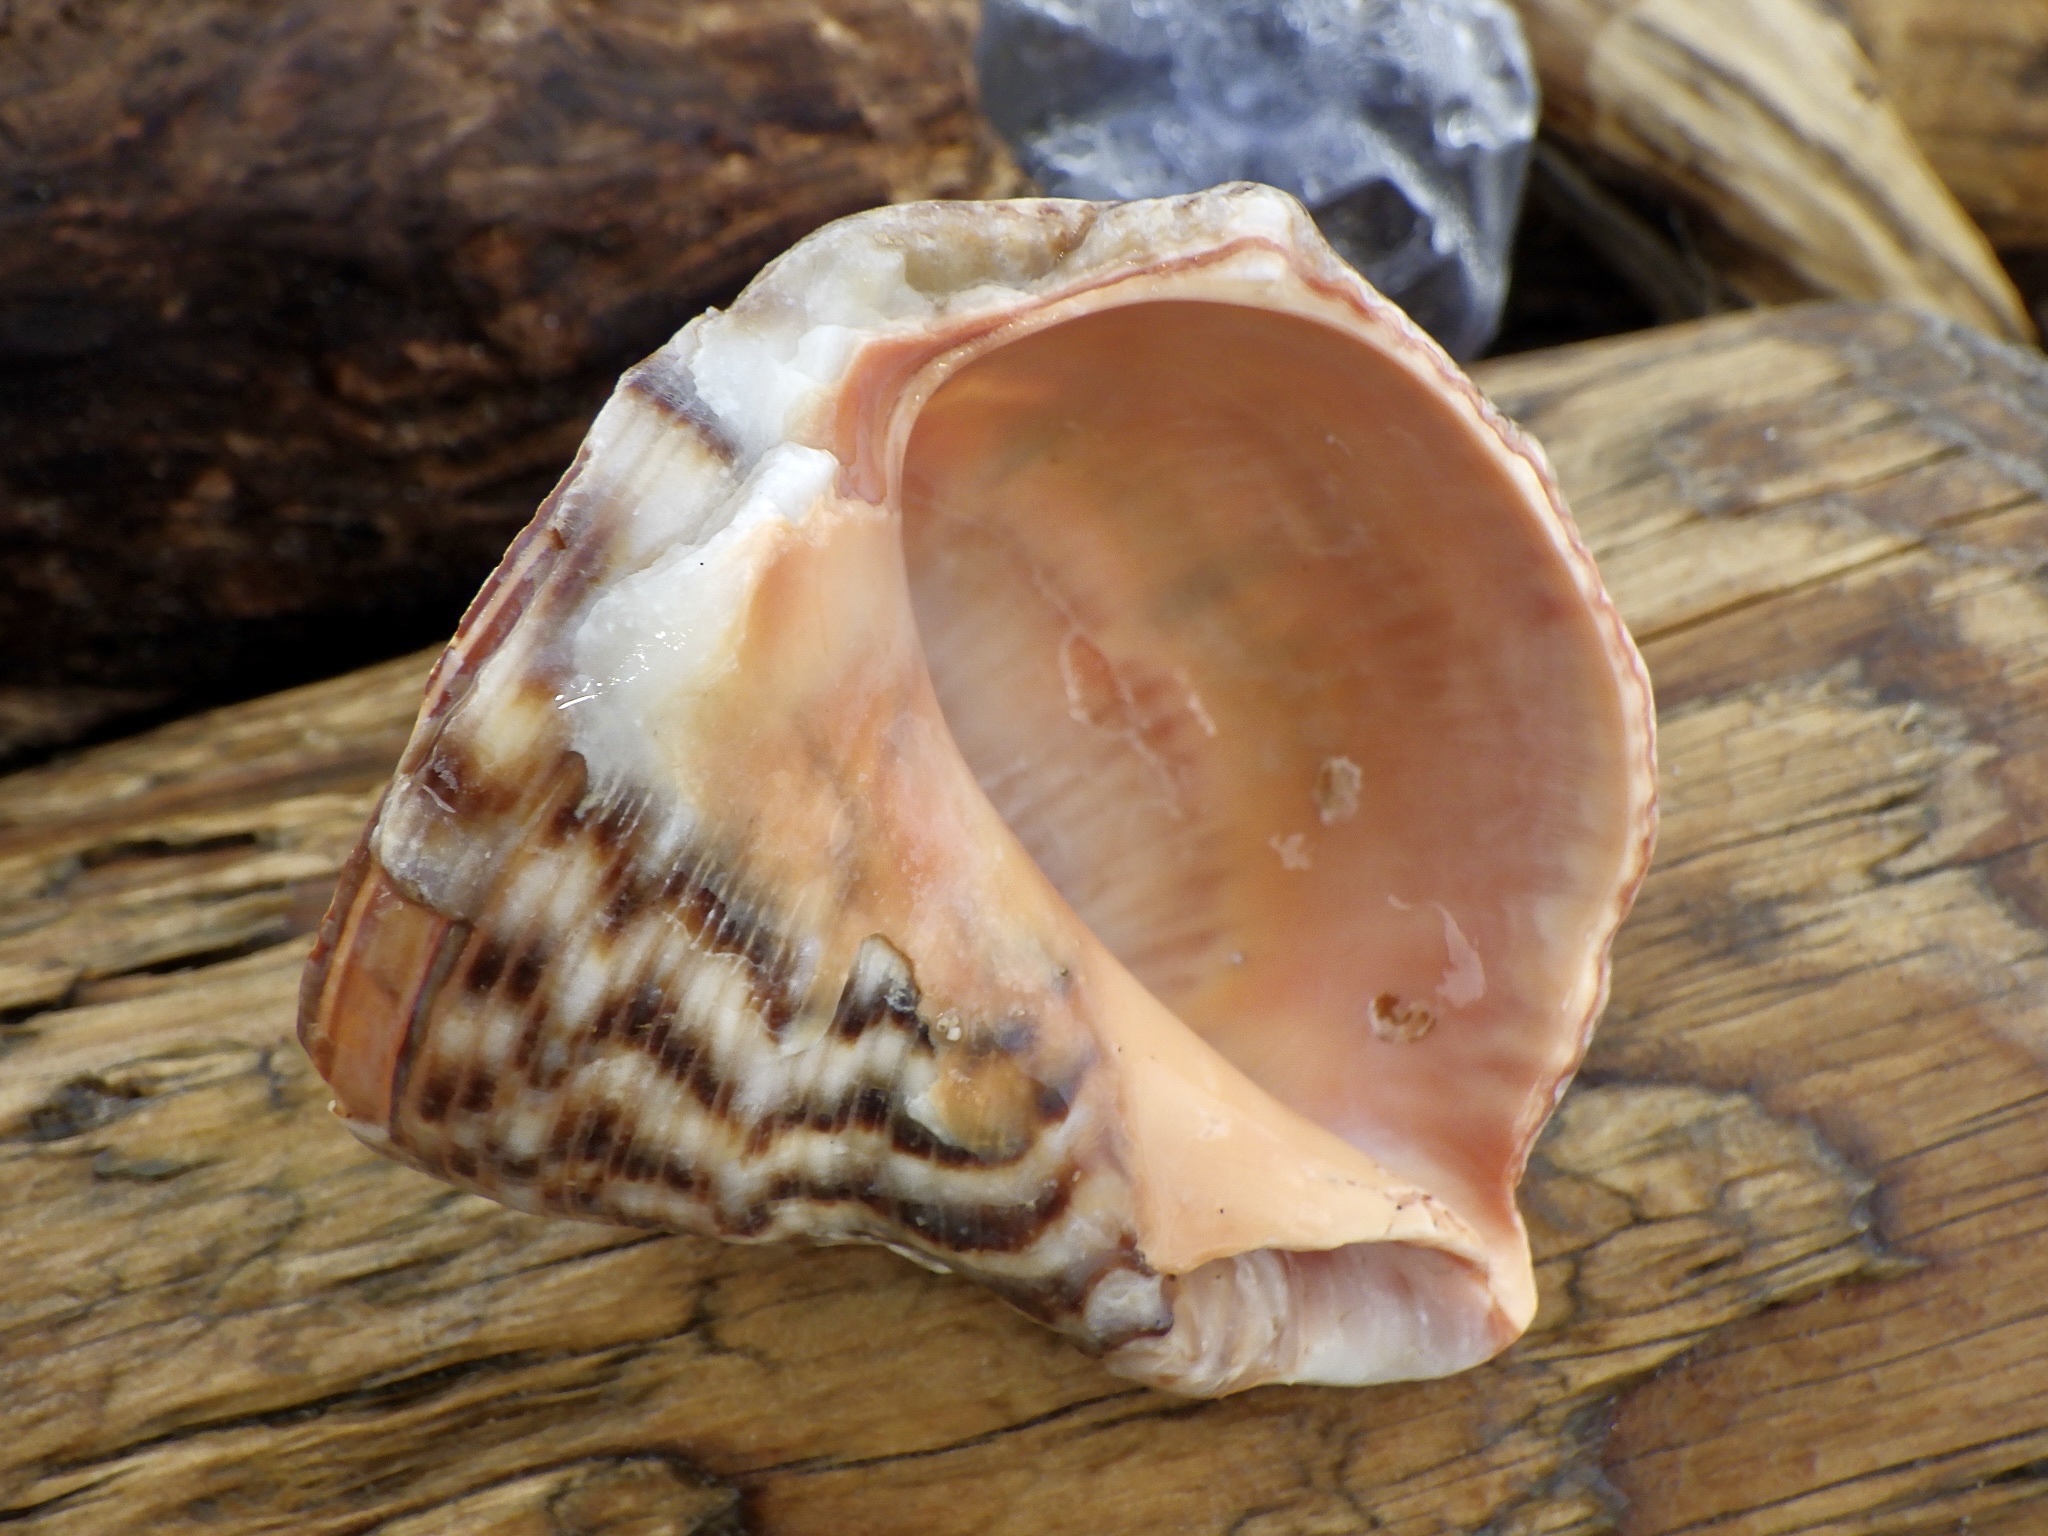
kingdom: Animalia
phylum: Mollusca
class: Gastropoda
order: Neogastropoda
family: Muricidae
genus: Rapana
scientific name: Rapana venosa
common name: Veined rapa whelk
